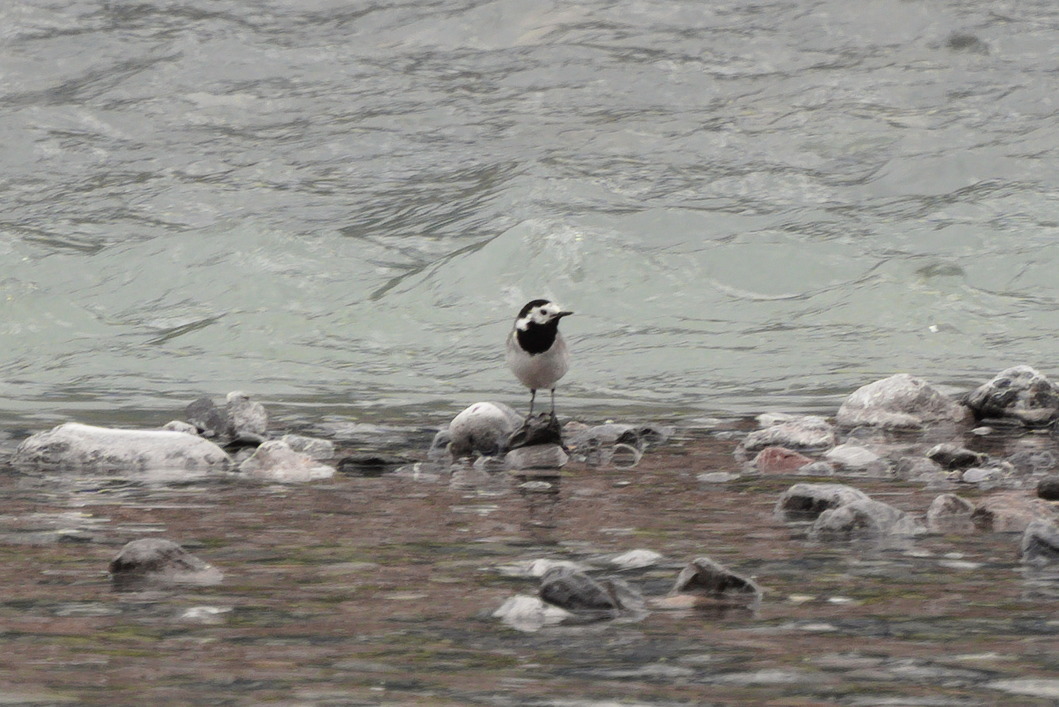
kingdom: Animalia
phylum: Chordata
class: Aves
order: Passeriformes
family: Motacillidae
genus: Motacilla
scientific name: Motacilla alba
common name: White wagtail
